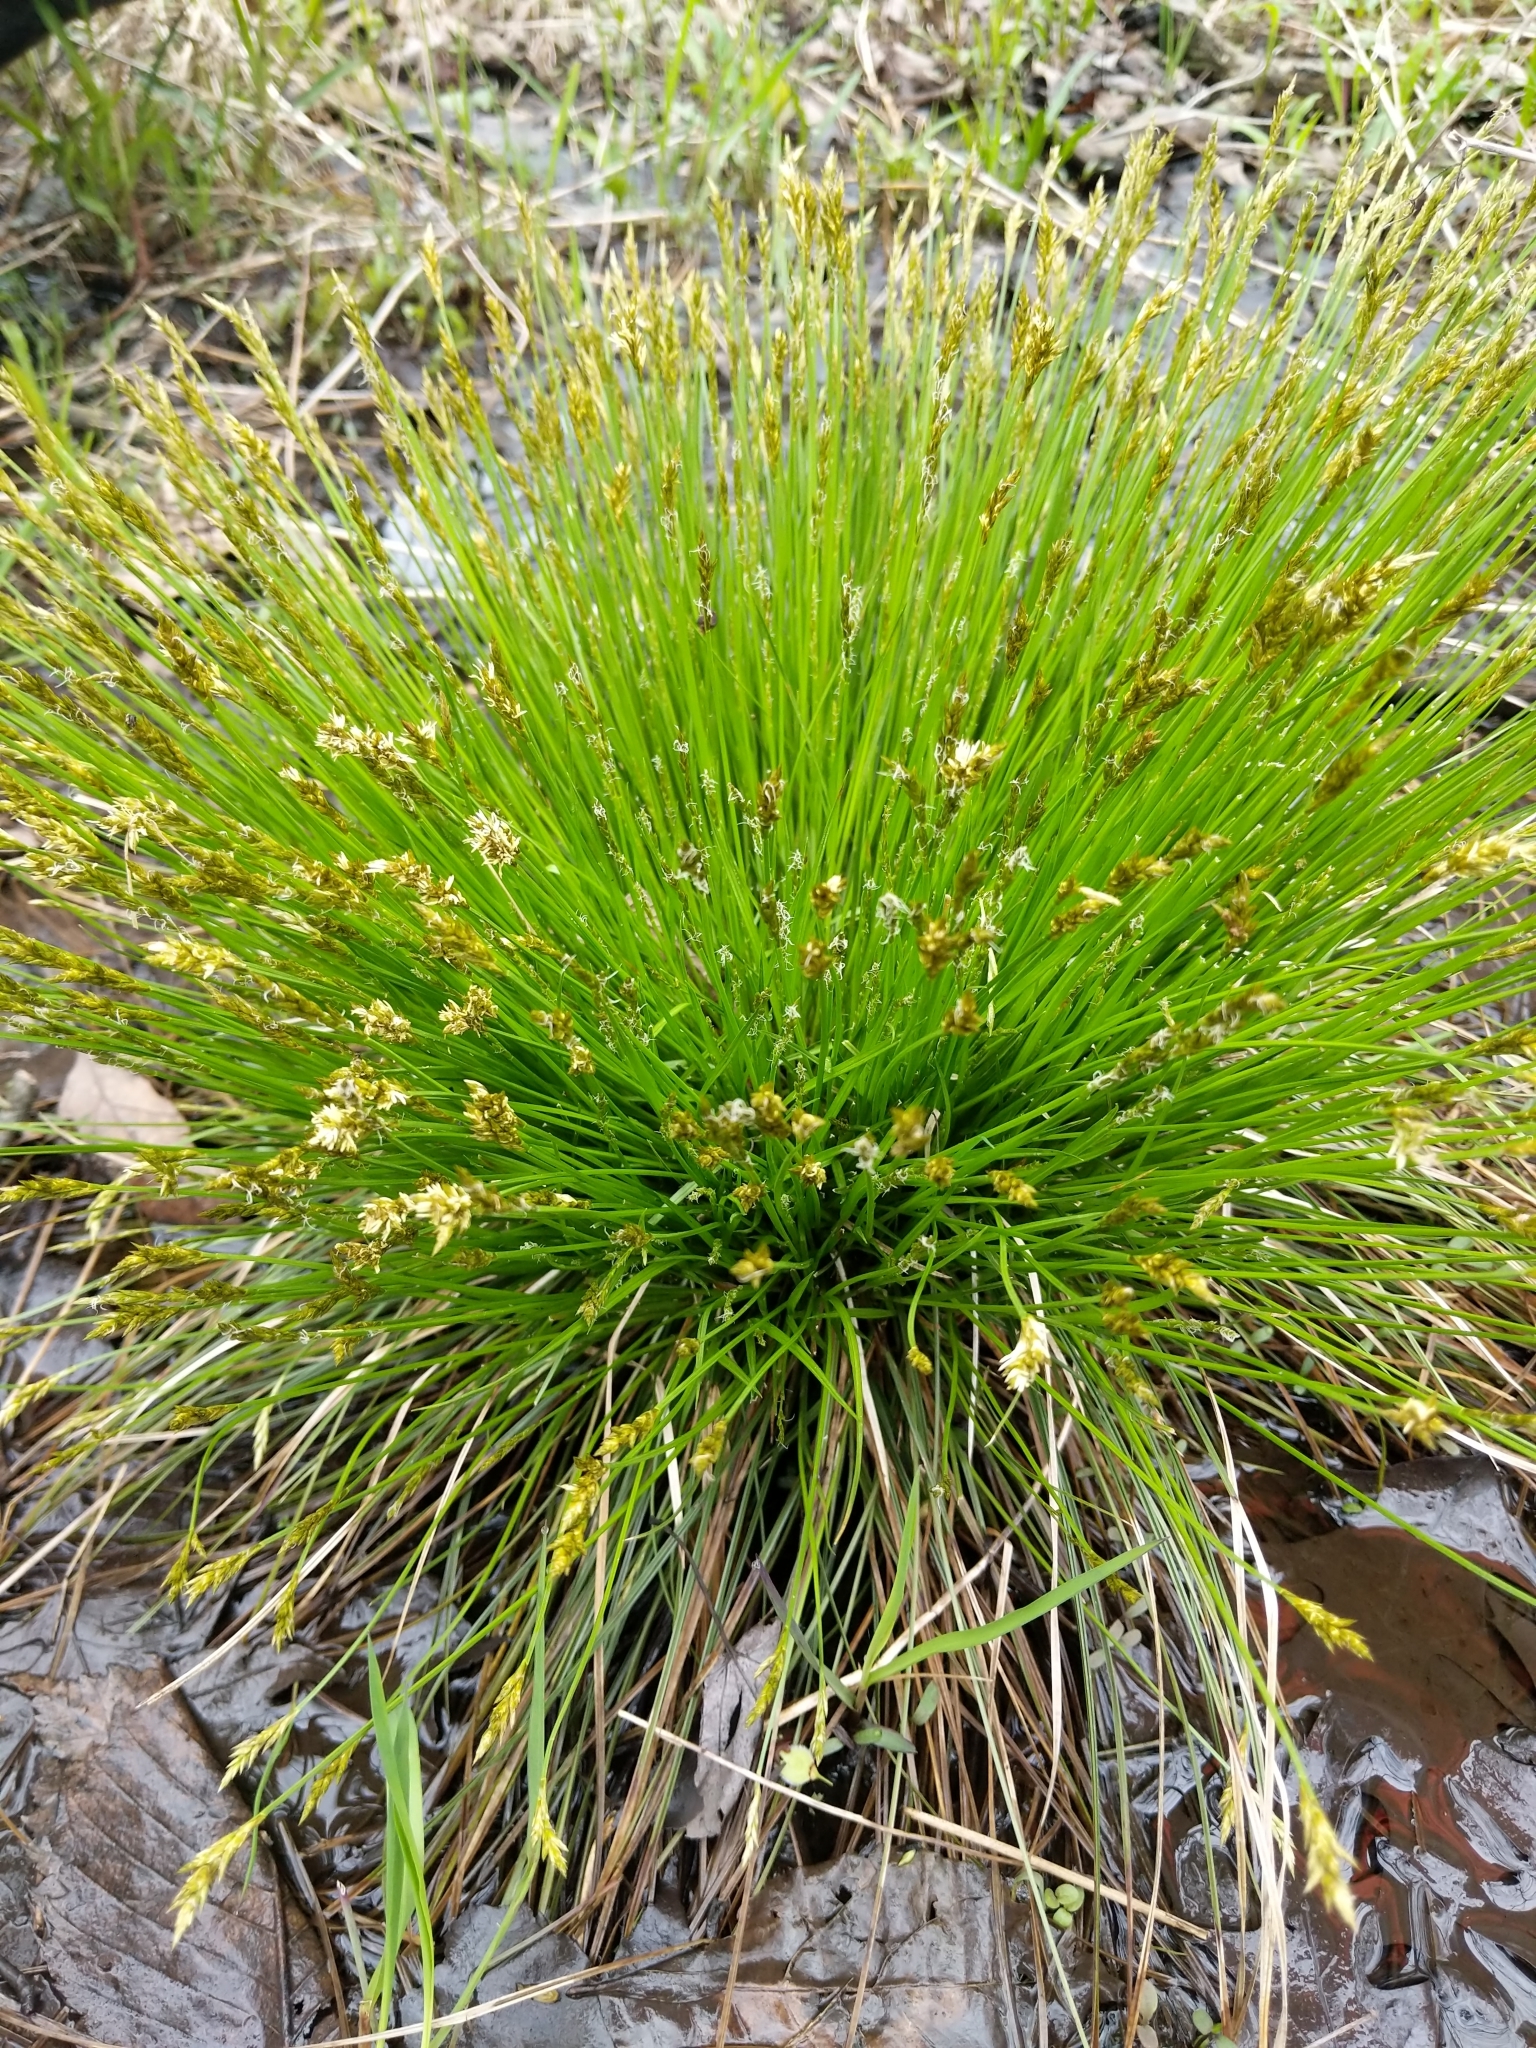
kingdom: Plantae
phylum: Tracheophyta
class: Liliopsida
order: Poales
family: Cyperaceae
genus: Carex
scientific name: Carex bromoides
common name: Brome hummock sedge
